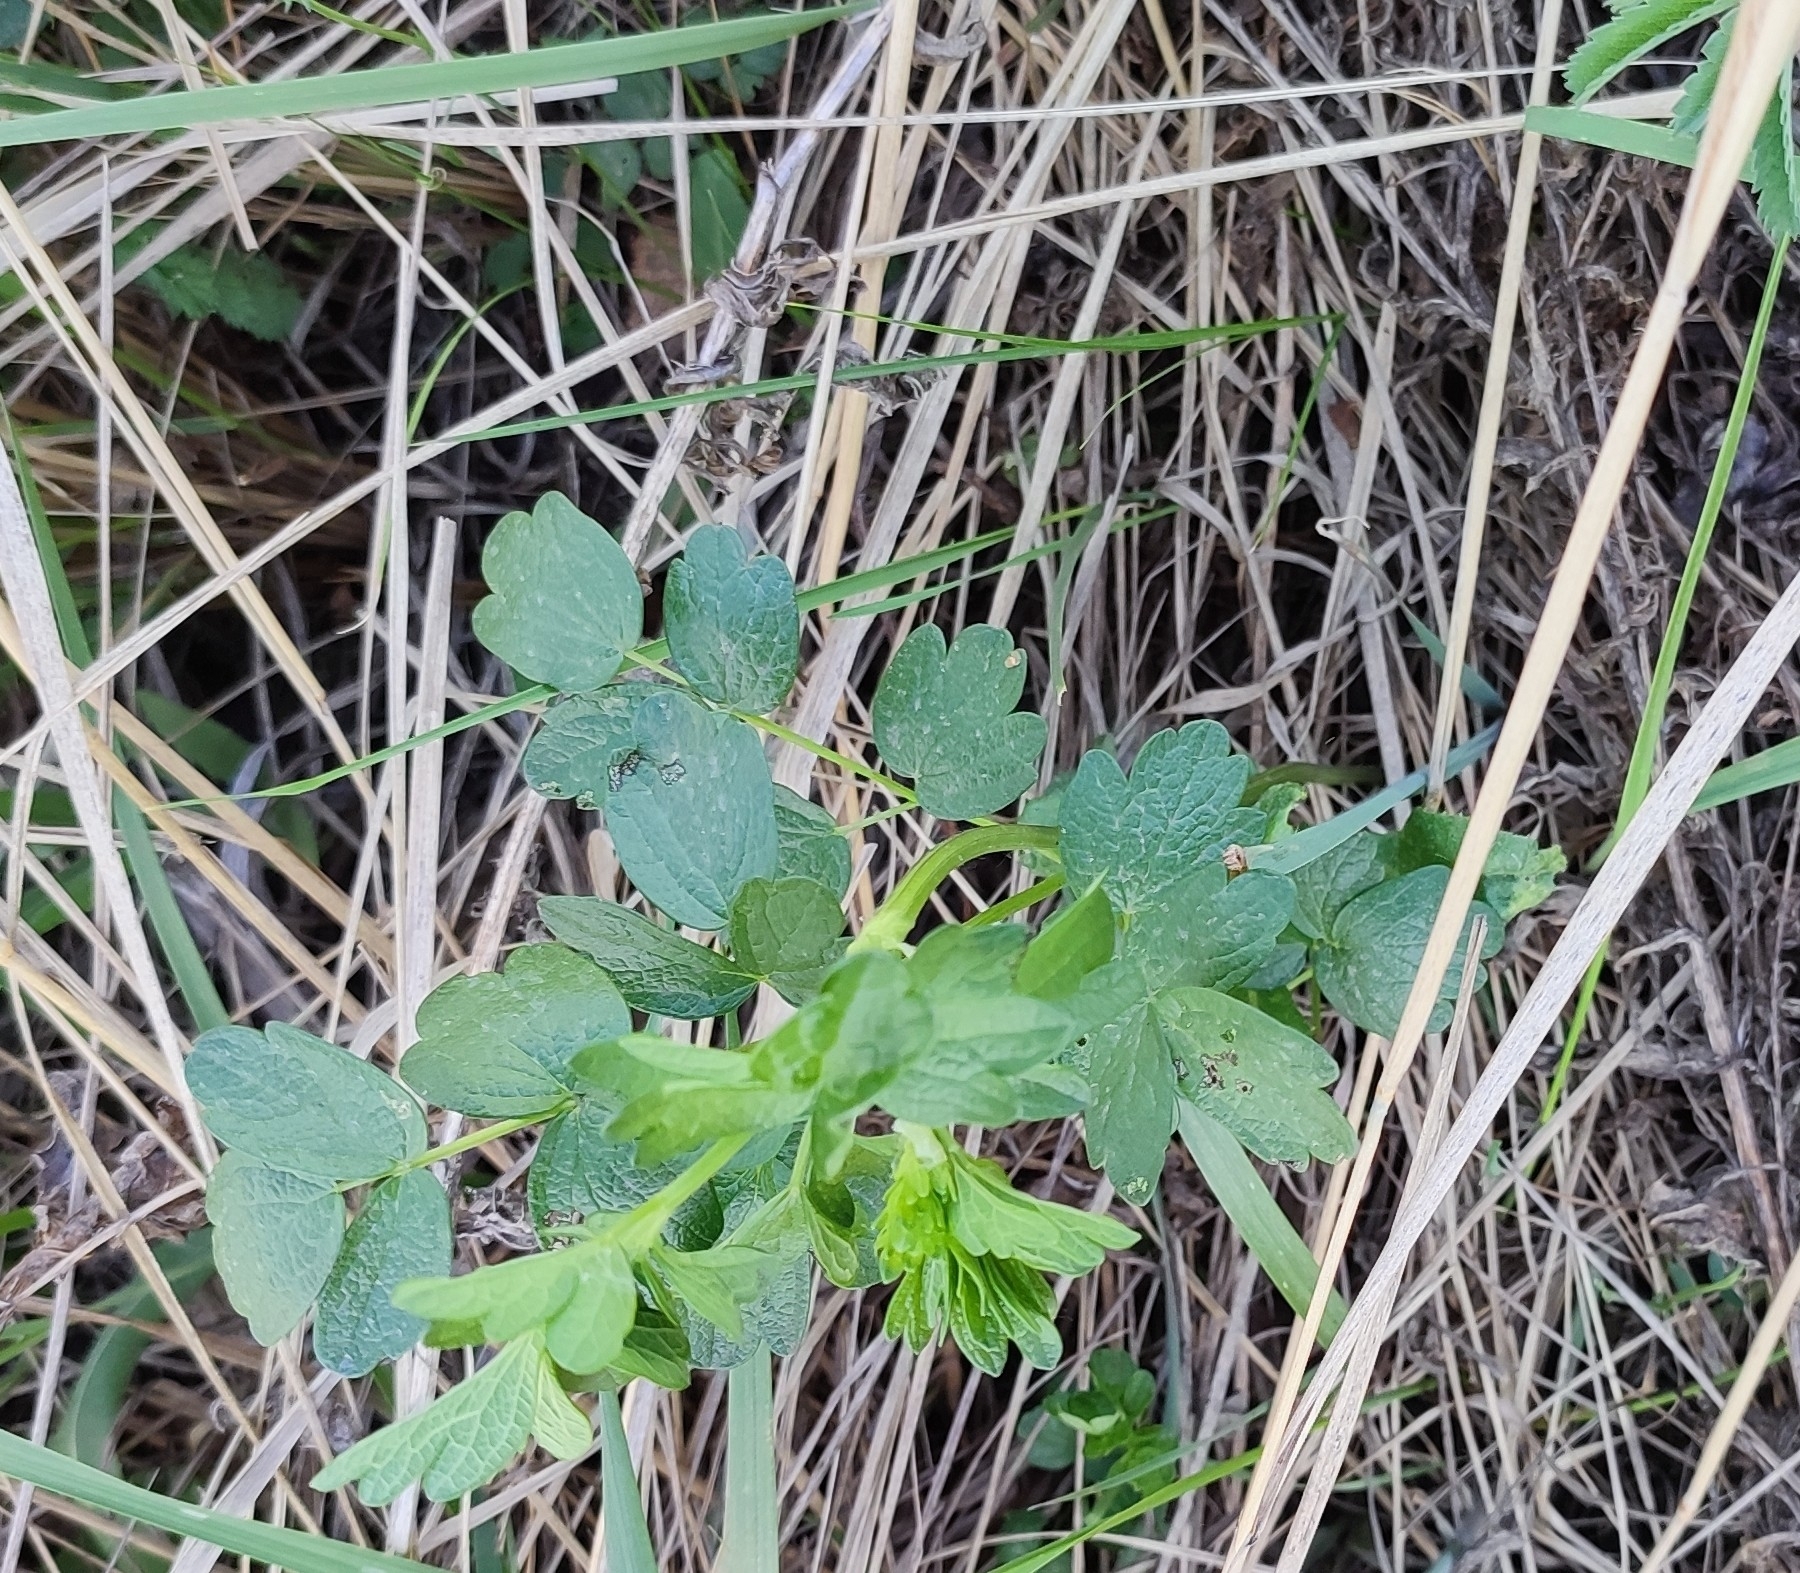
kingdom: Plantae
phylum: Tracheophyta
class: Magnoliopsida
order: Ranunculales
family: Ranunculaceae
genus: Thalictrum
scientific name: Thalictrum minus
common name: Lesser meadow-rue
